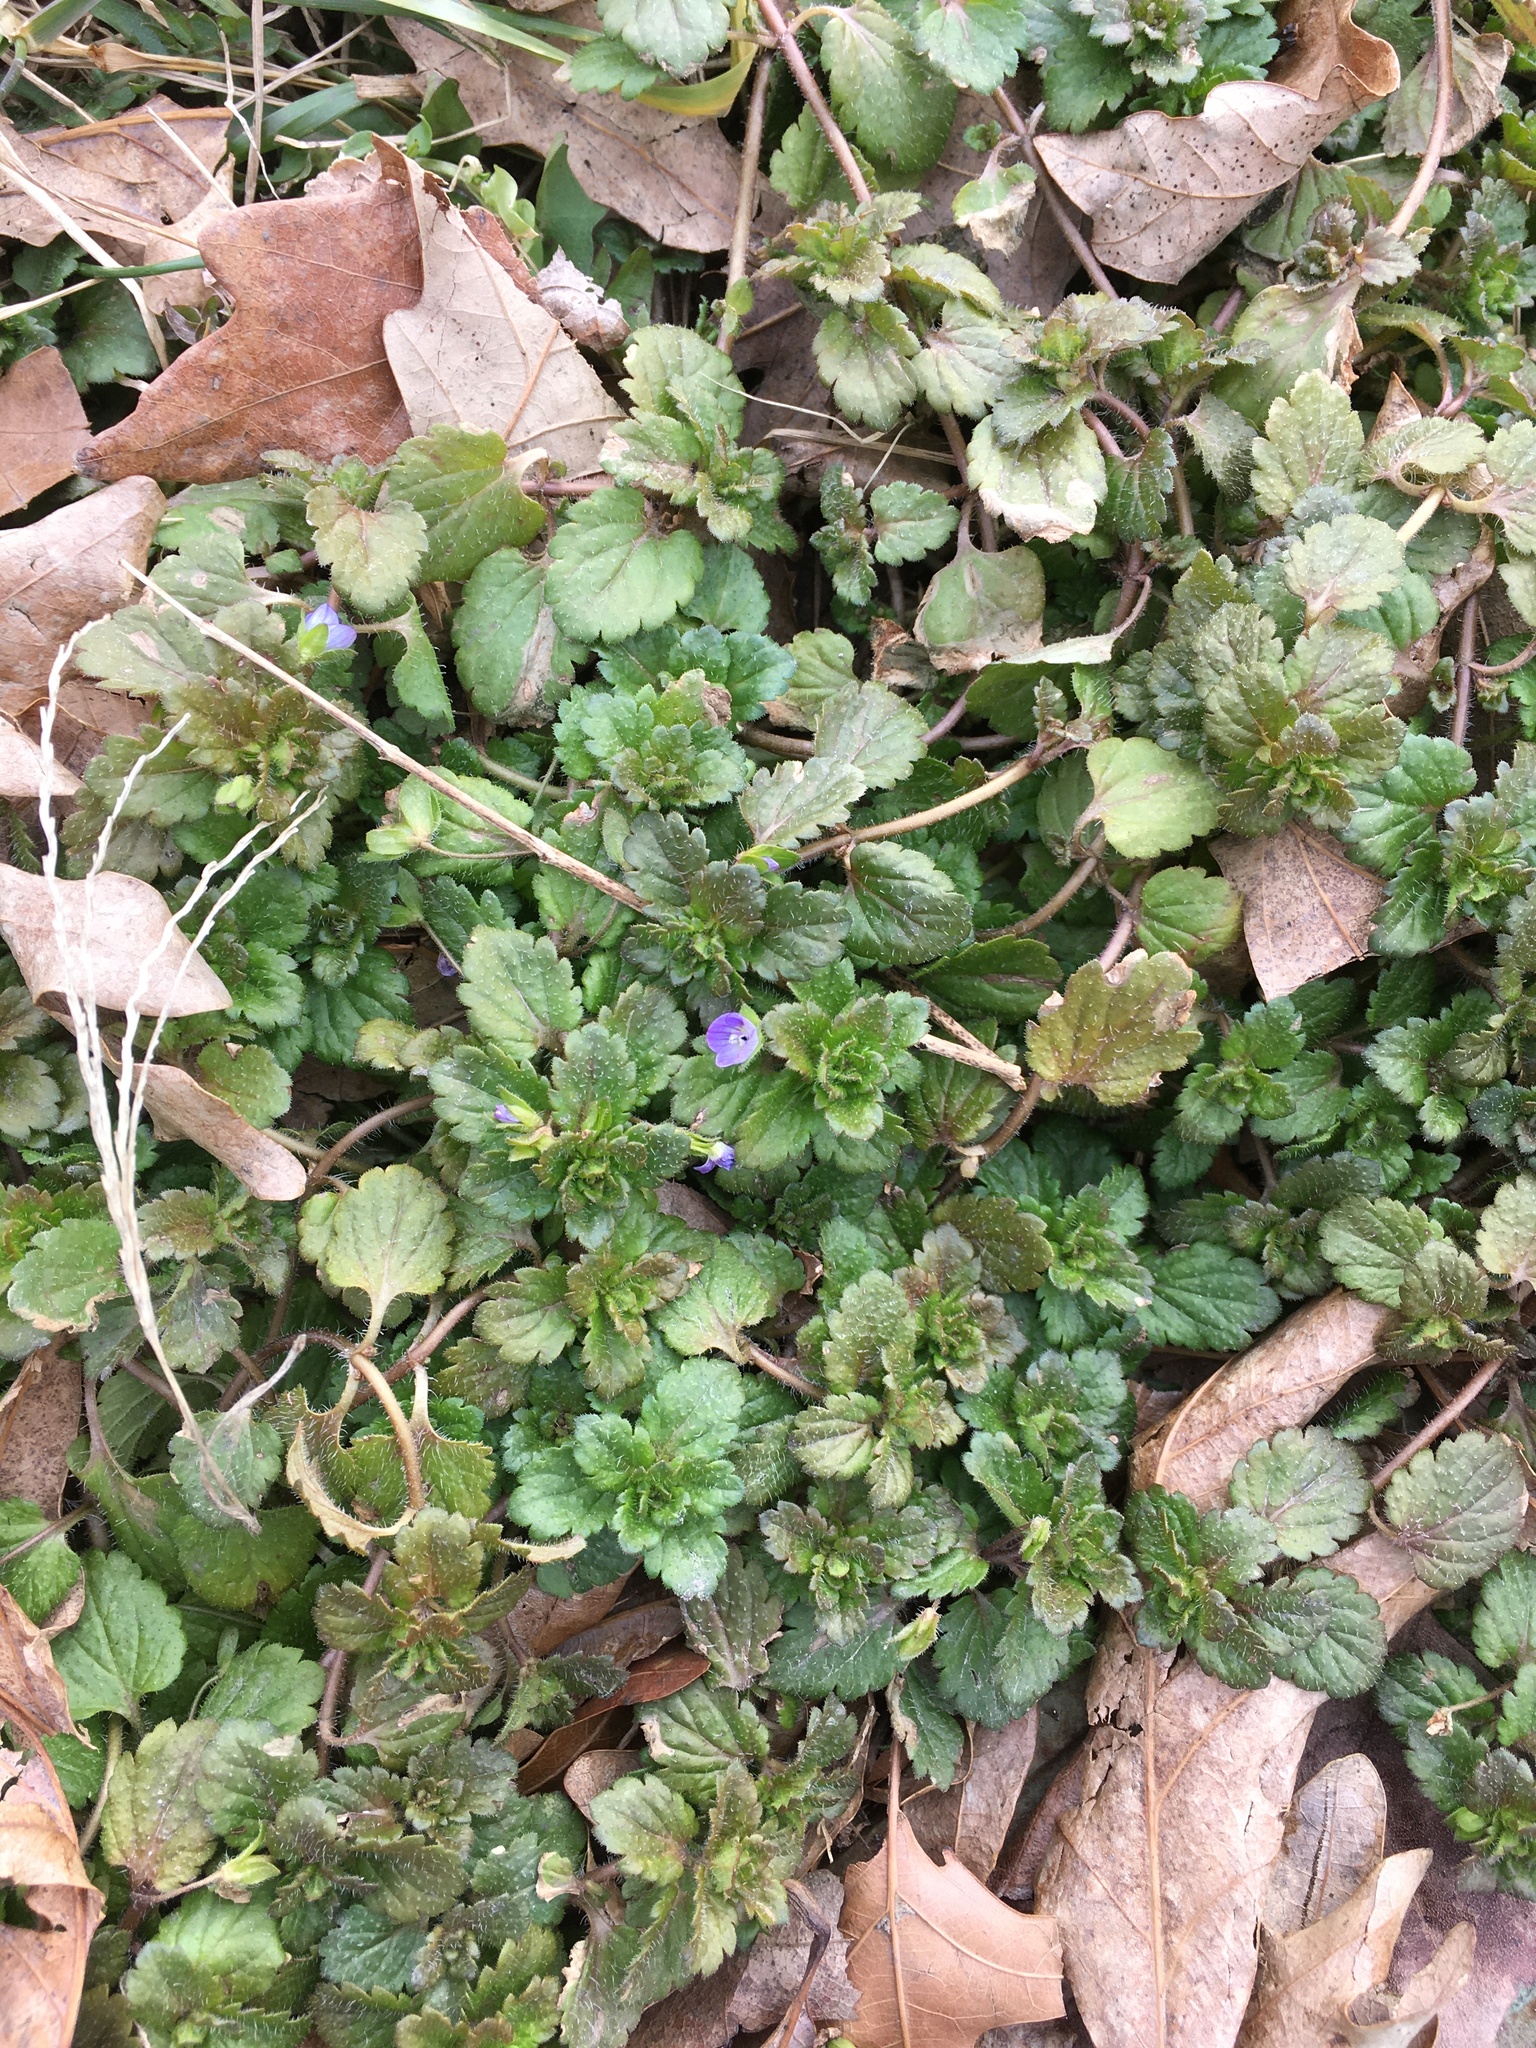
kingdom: Plantae
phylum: Tracheophyta
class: Magnoliopsida
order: Lamiales
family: Plantaginaceae
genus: Veronica
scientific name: Veronica persica
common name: Common field-speedwell
